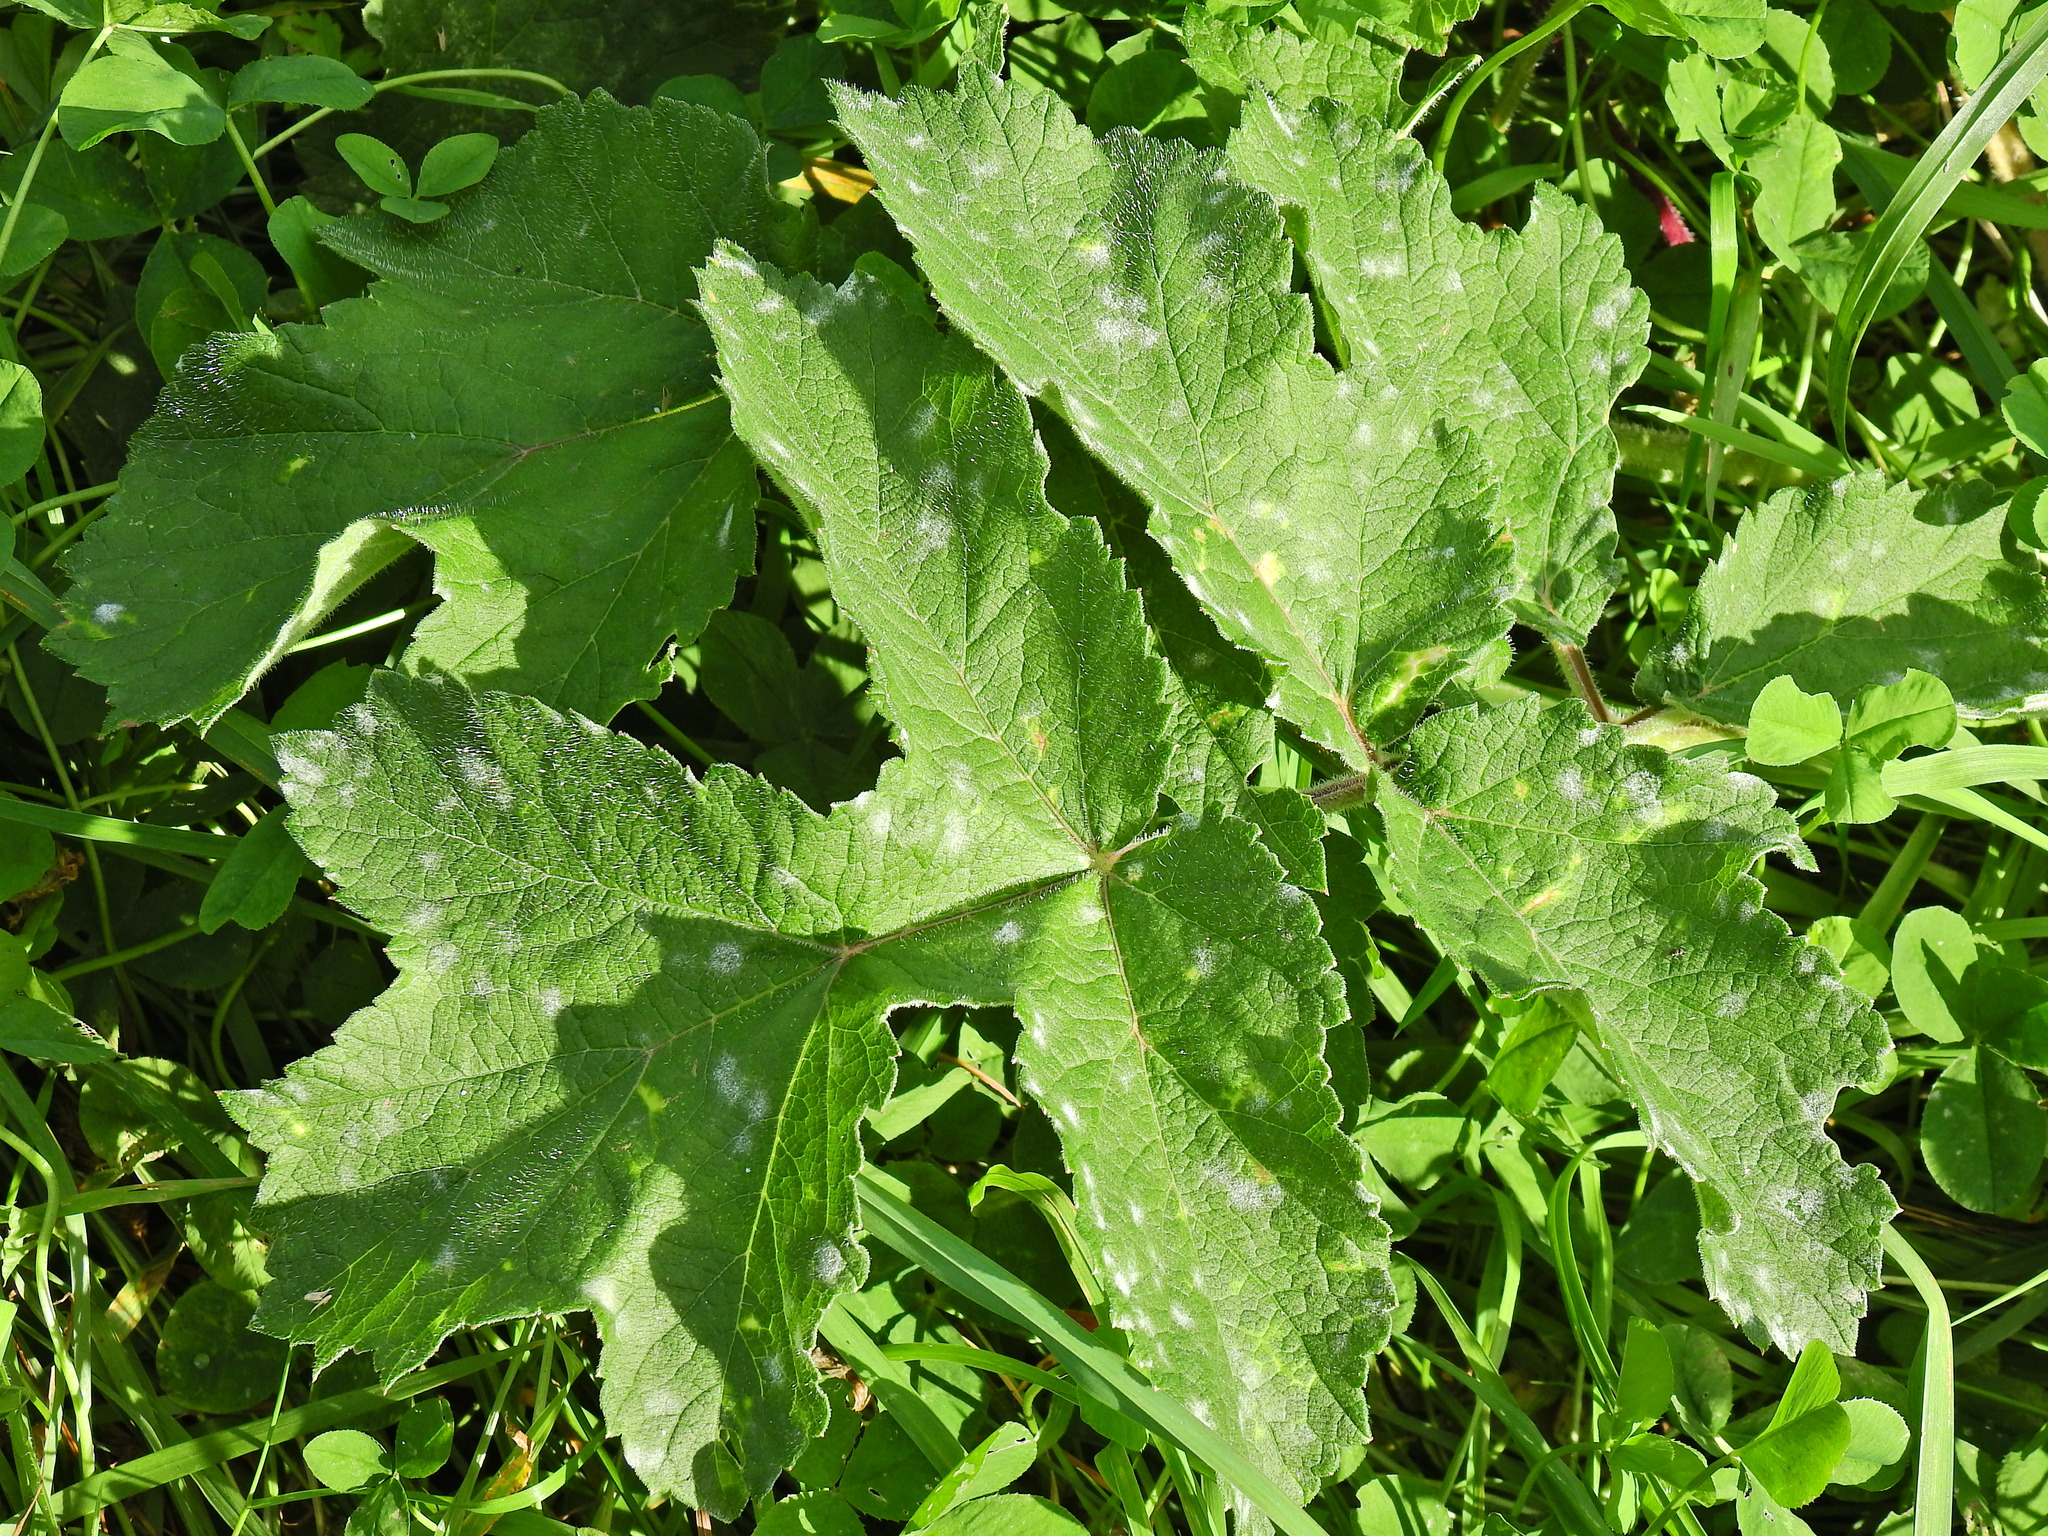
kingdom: Fungi
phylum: Ascomycota
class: Leotiomycetes
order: Helotiales
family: Erysiphaceae
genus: Erysiphe
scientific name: Erysiphe heraclei
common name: Umbellifer mildew
